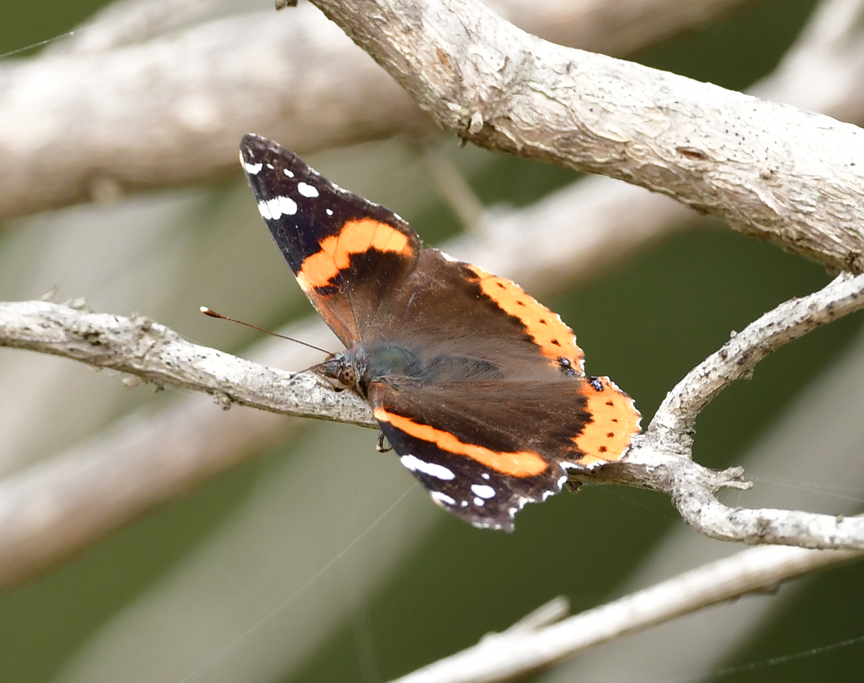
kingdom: Animalia
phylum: Arthropoda
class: Insecta
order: Lepidoptera
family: Nymphalidae
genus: Vanessa
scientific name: Vanessa atalanta
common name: Red admiral
